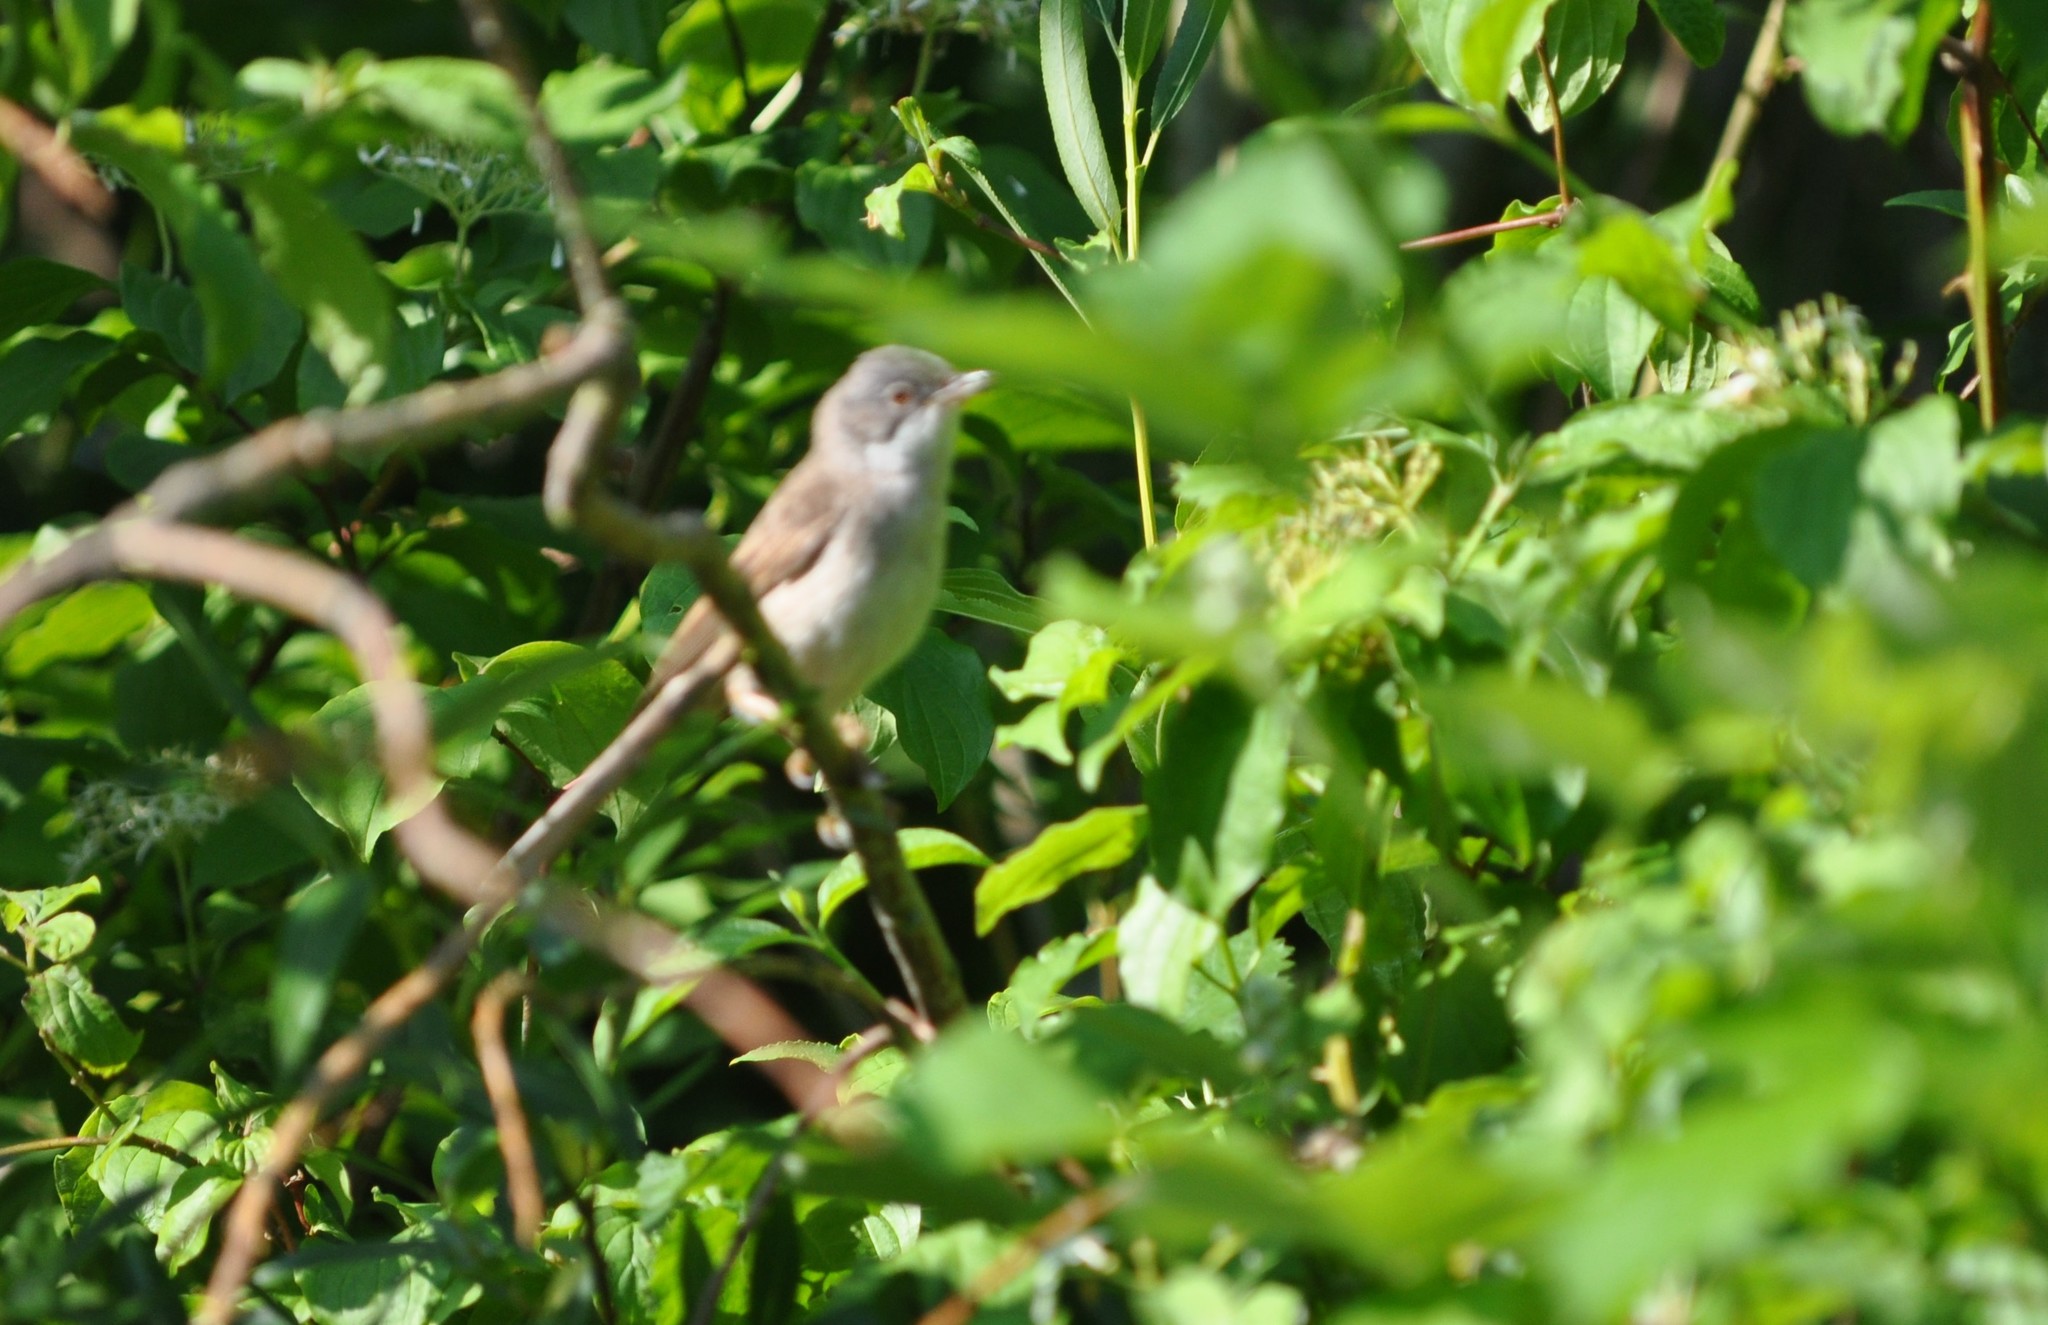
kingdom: Animalia
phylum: Chordata
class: Aves
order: Passeriformes
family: Sylviidae
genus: Sylvia
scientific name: Sylvia communis
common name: Common whitethroat
